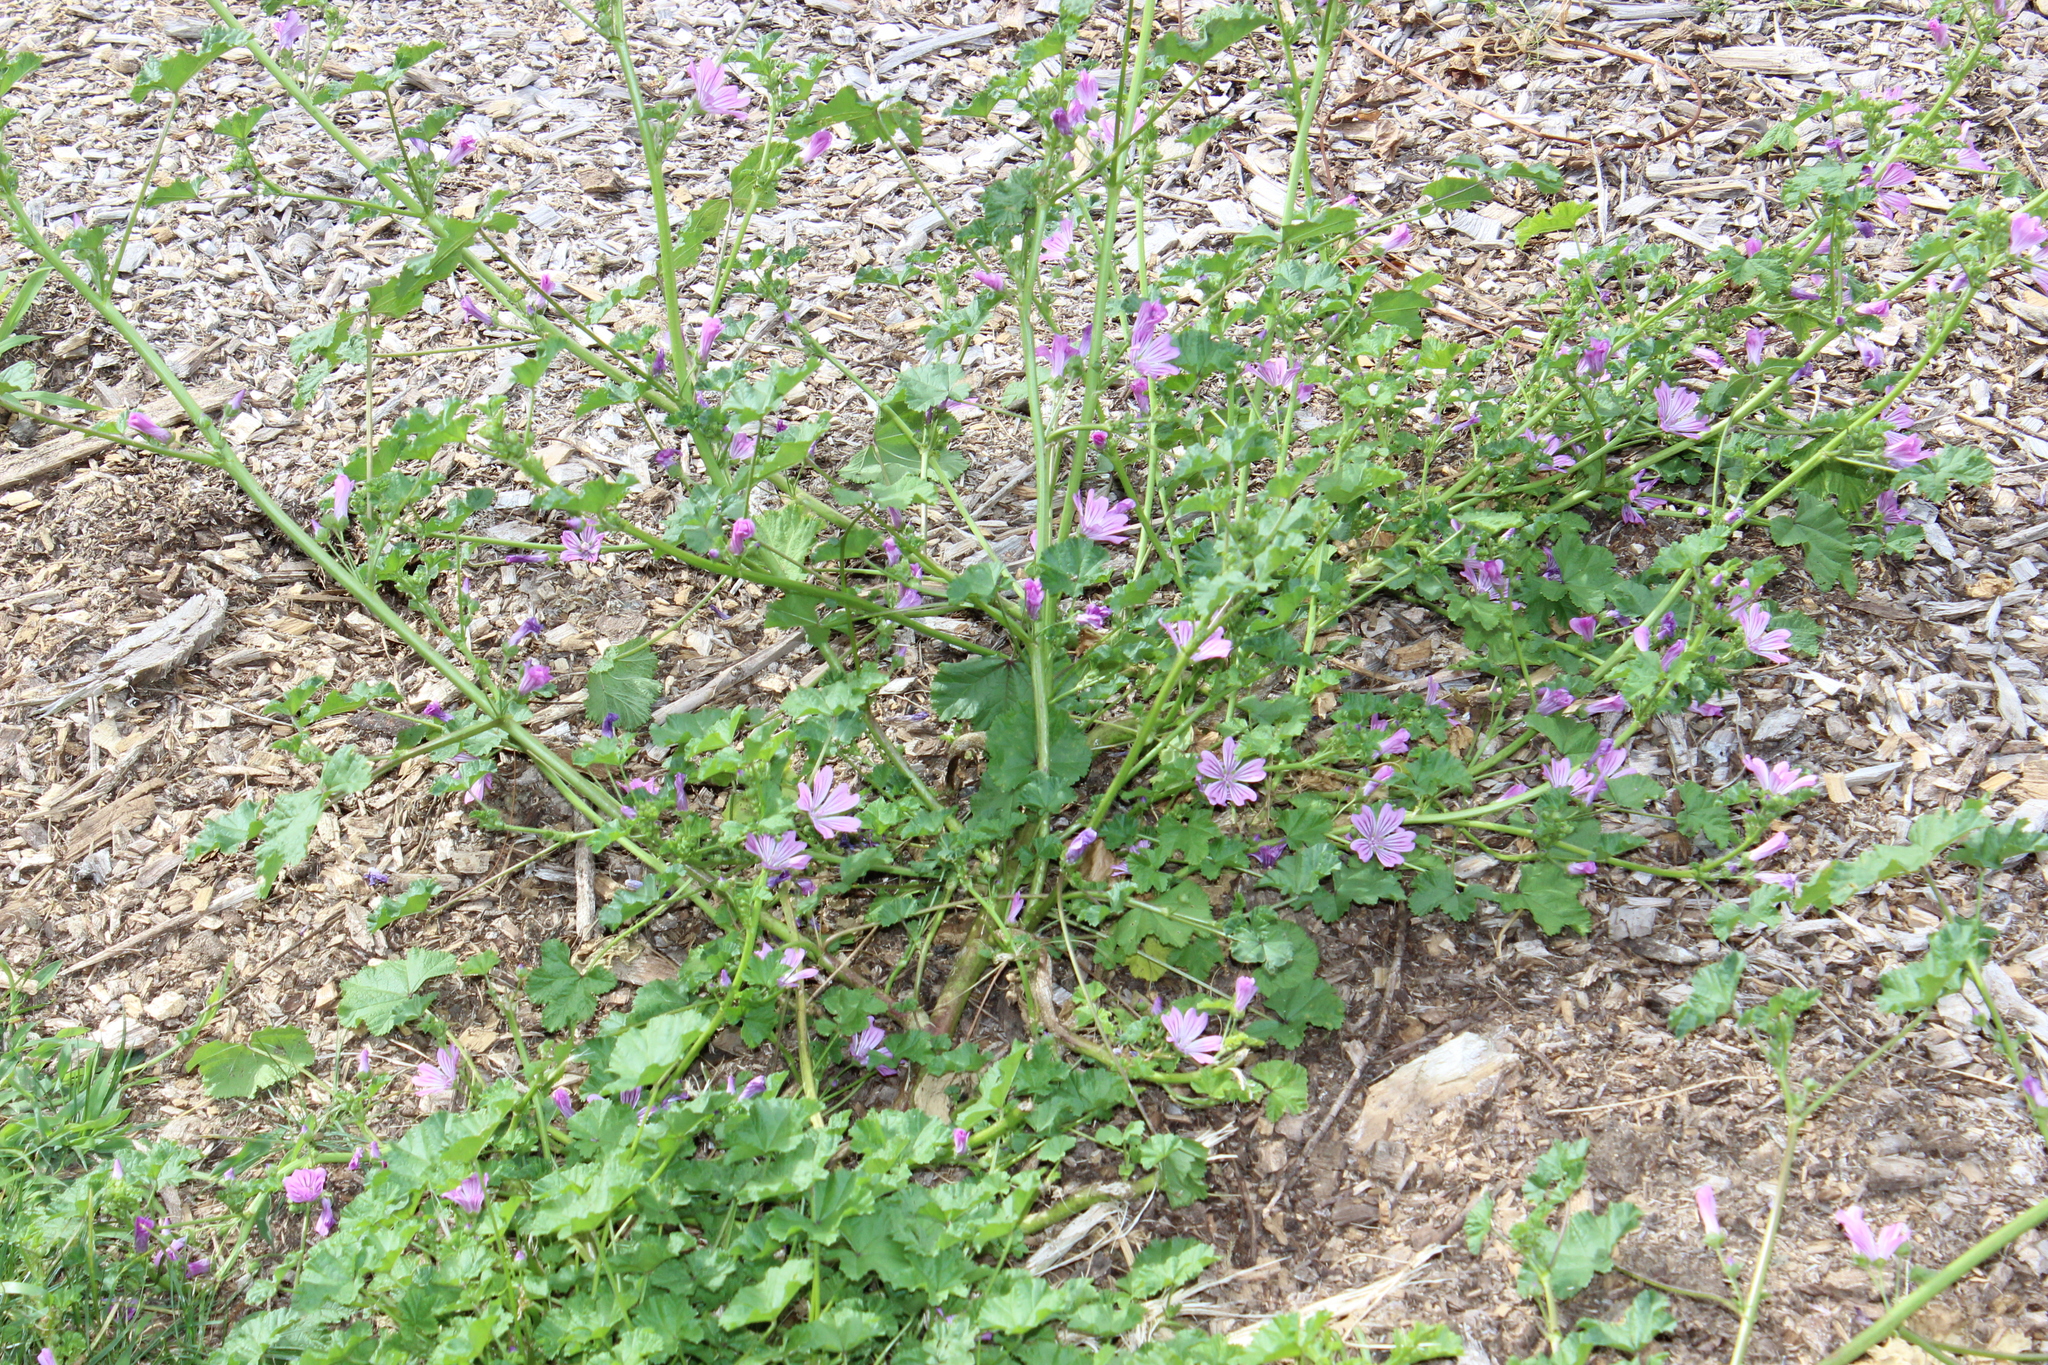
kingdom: Plantae
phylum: Tracheophyta
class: Magnoliopsida
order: Malvales
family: Malvaceae
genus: Malva
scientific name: Malva sylvestris
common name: Common mallow
